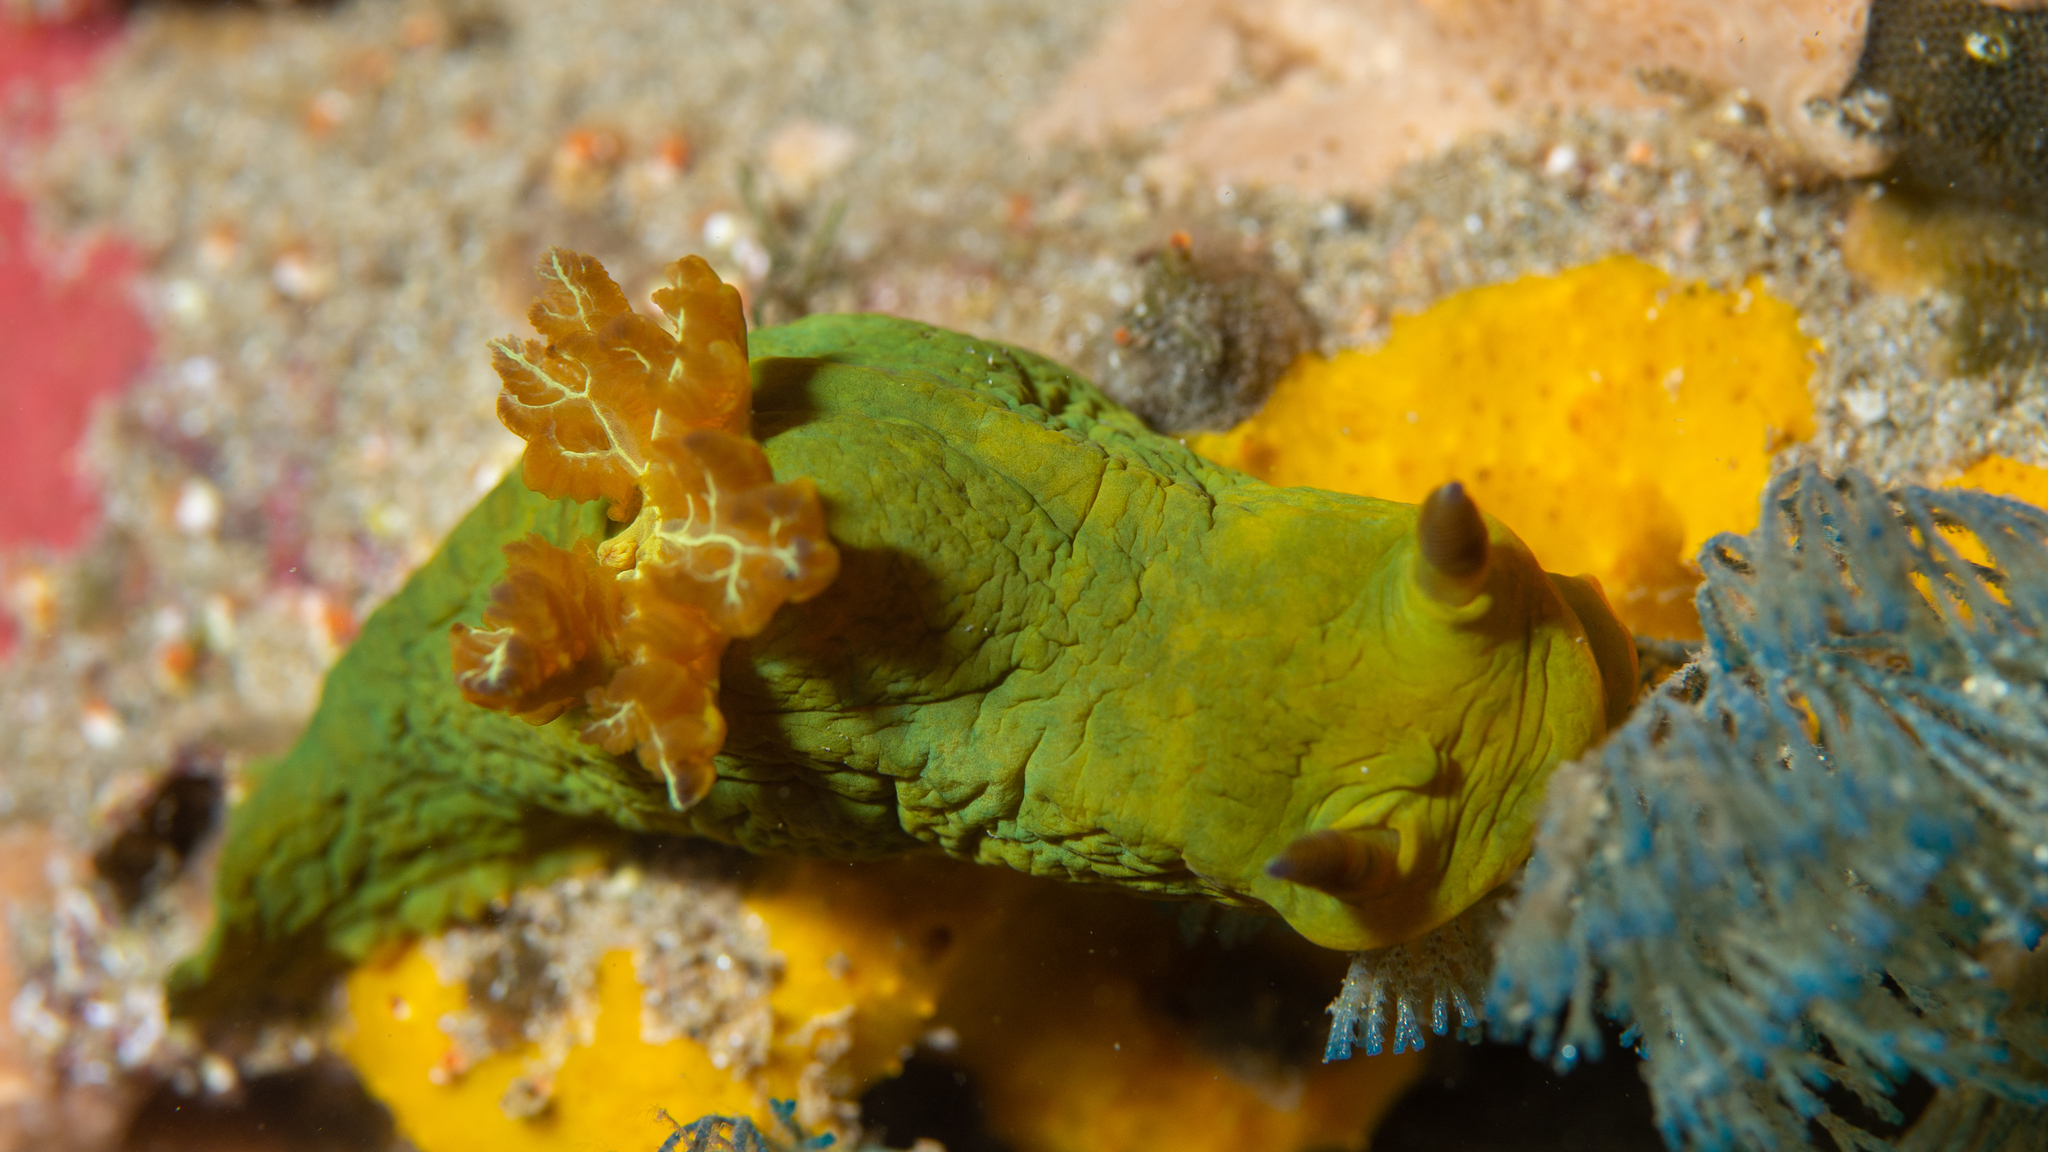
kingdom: Animalia
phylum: Mollusca
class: Gastropoda
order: Nudibranchia
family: Polyceridae
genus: Tambja
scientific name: Tambja dracomus
